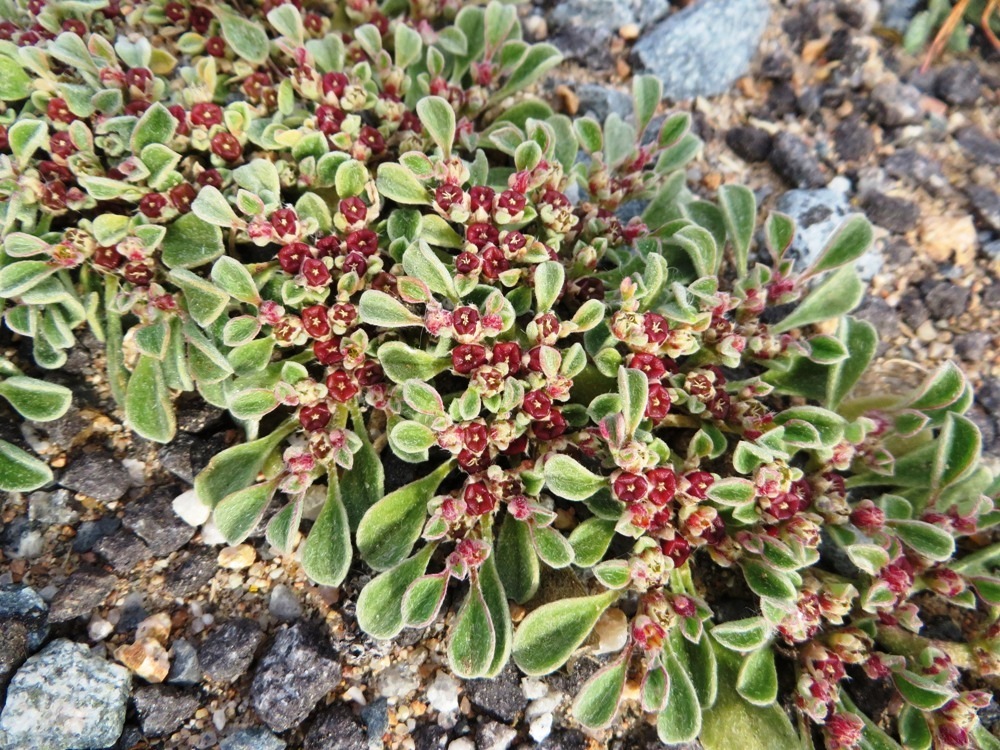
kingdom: Plantae
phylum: Tracheophyta
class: Magnoliopsida
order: Caryophyllales
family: Aizoaceae
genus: Aizoon
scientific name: Aizoon canariense
